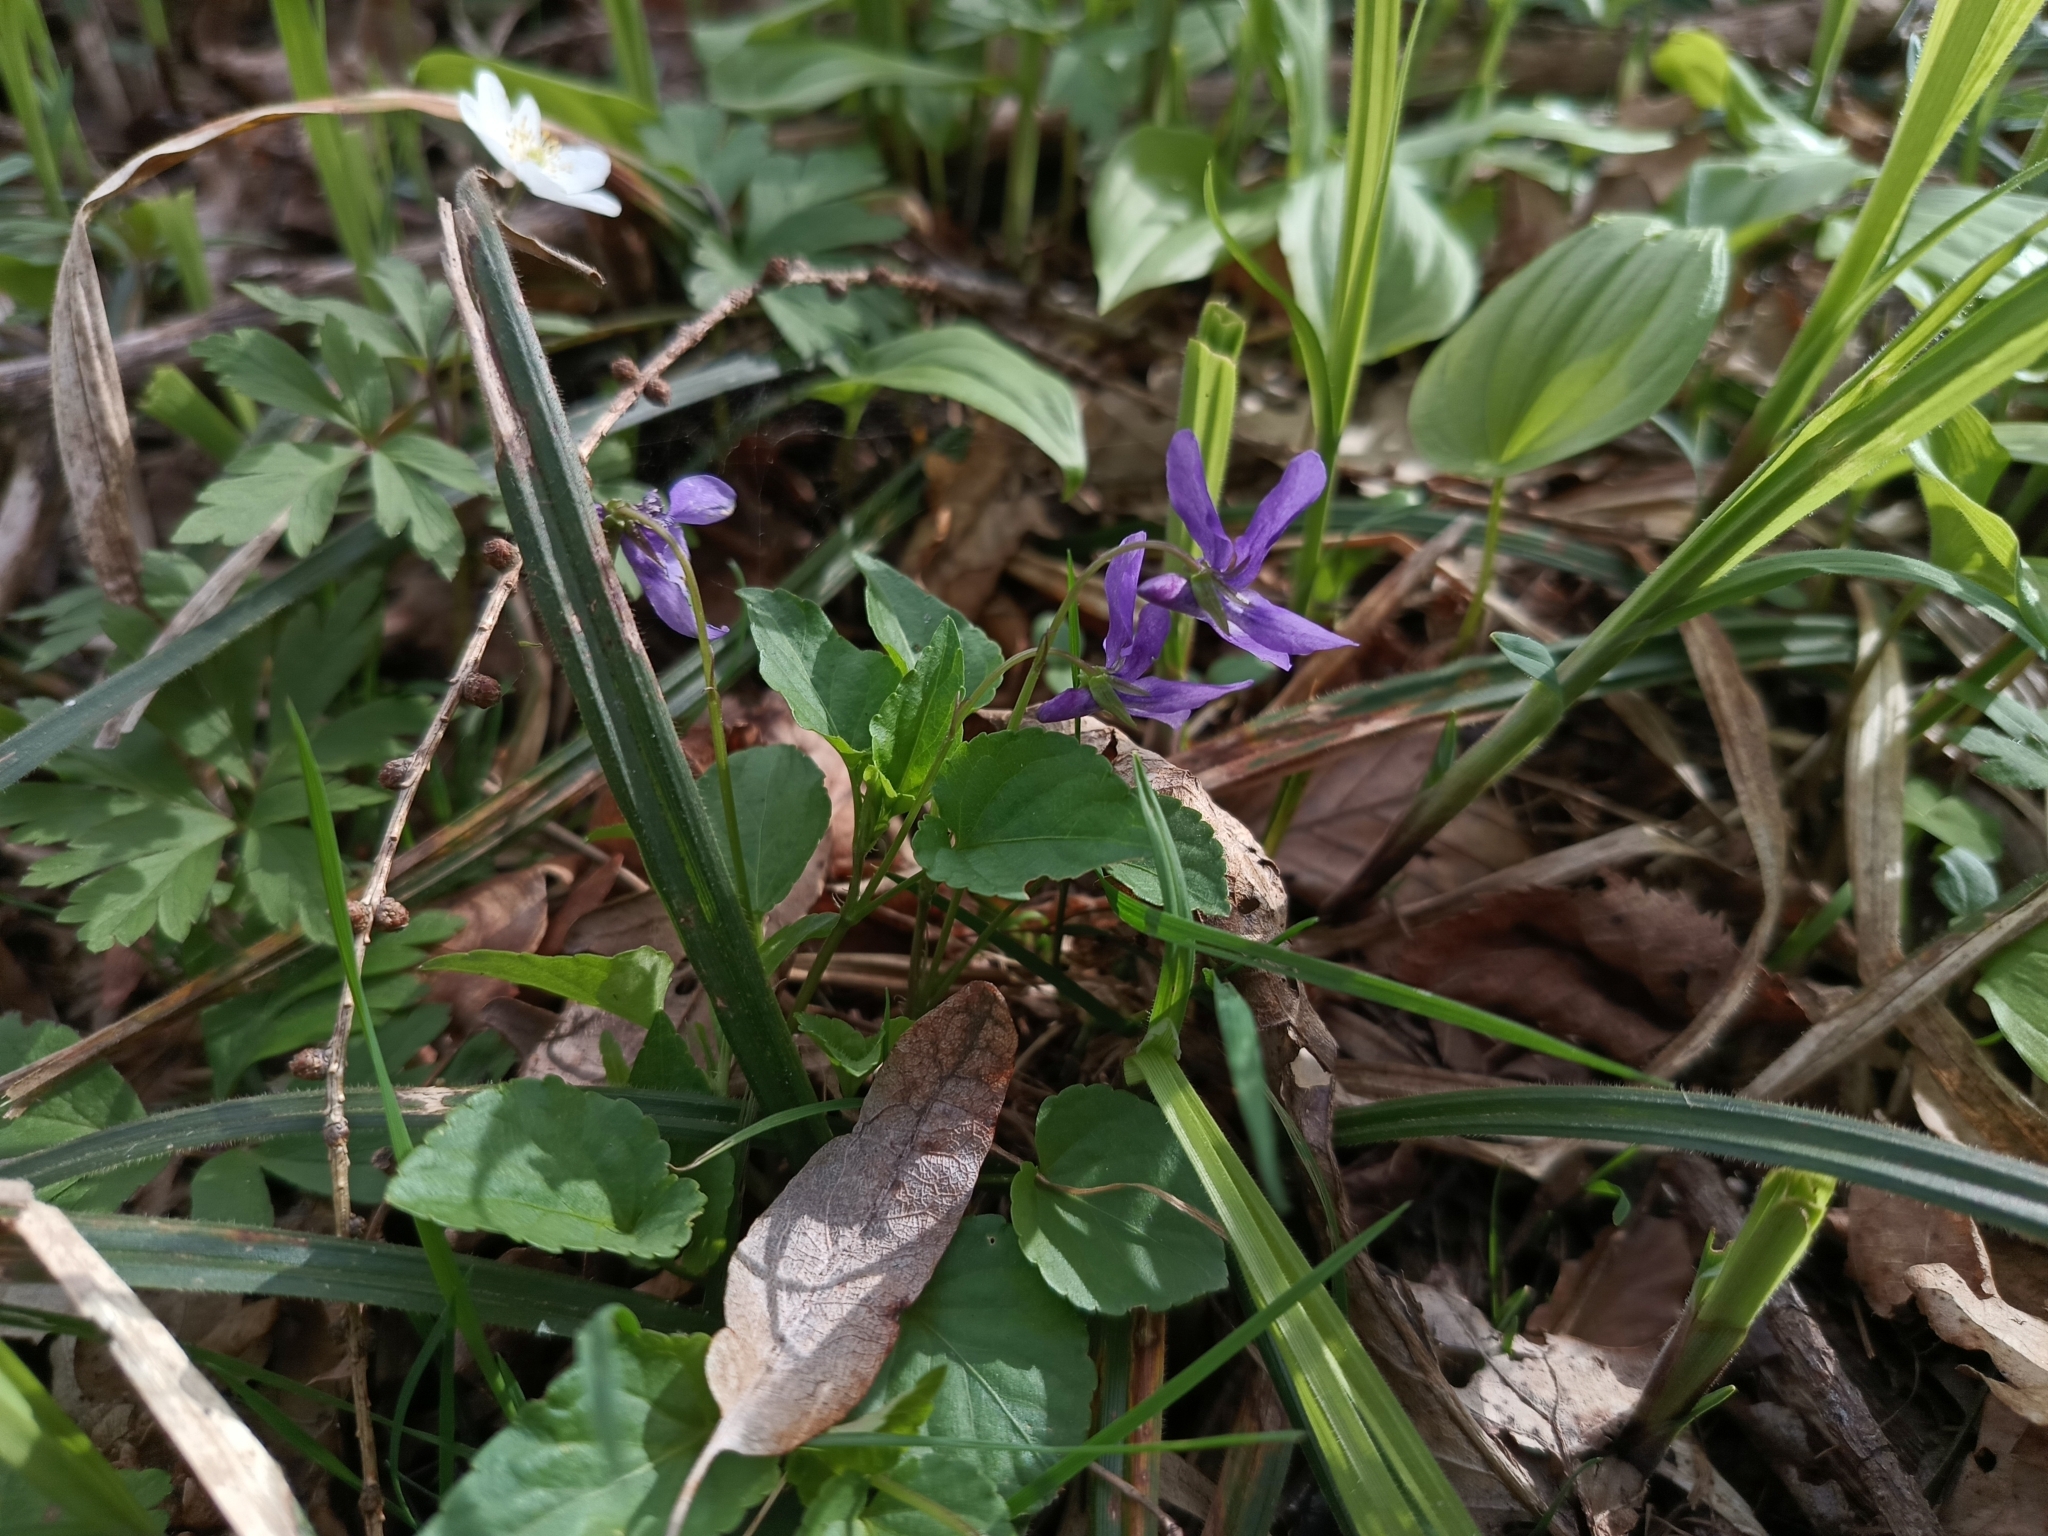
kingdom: Plantae
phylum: Tracheophyta
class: Magnoliopsida
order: Malpighiales
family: Violaceae
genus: Viola
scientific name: Viola reichenbachiana
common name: Early dog-violet
